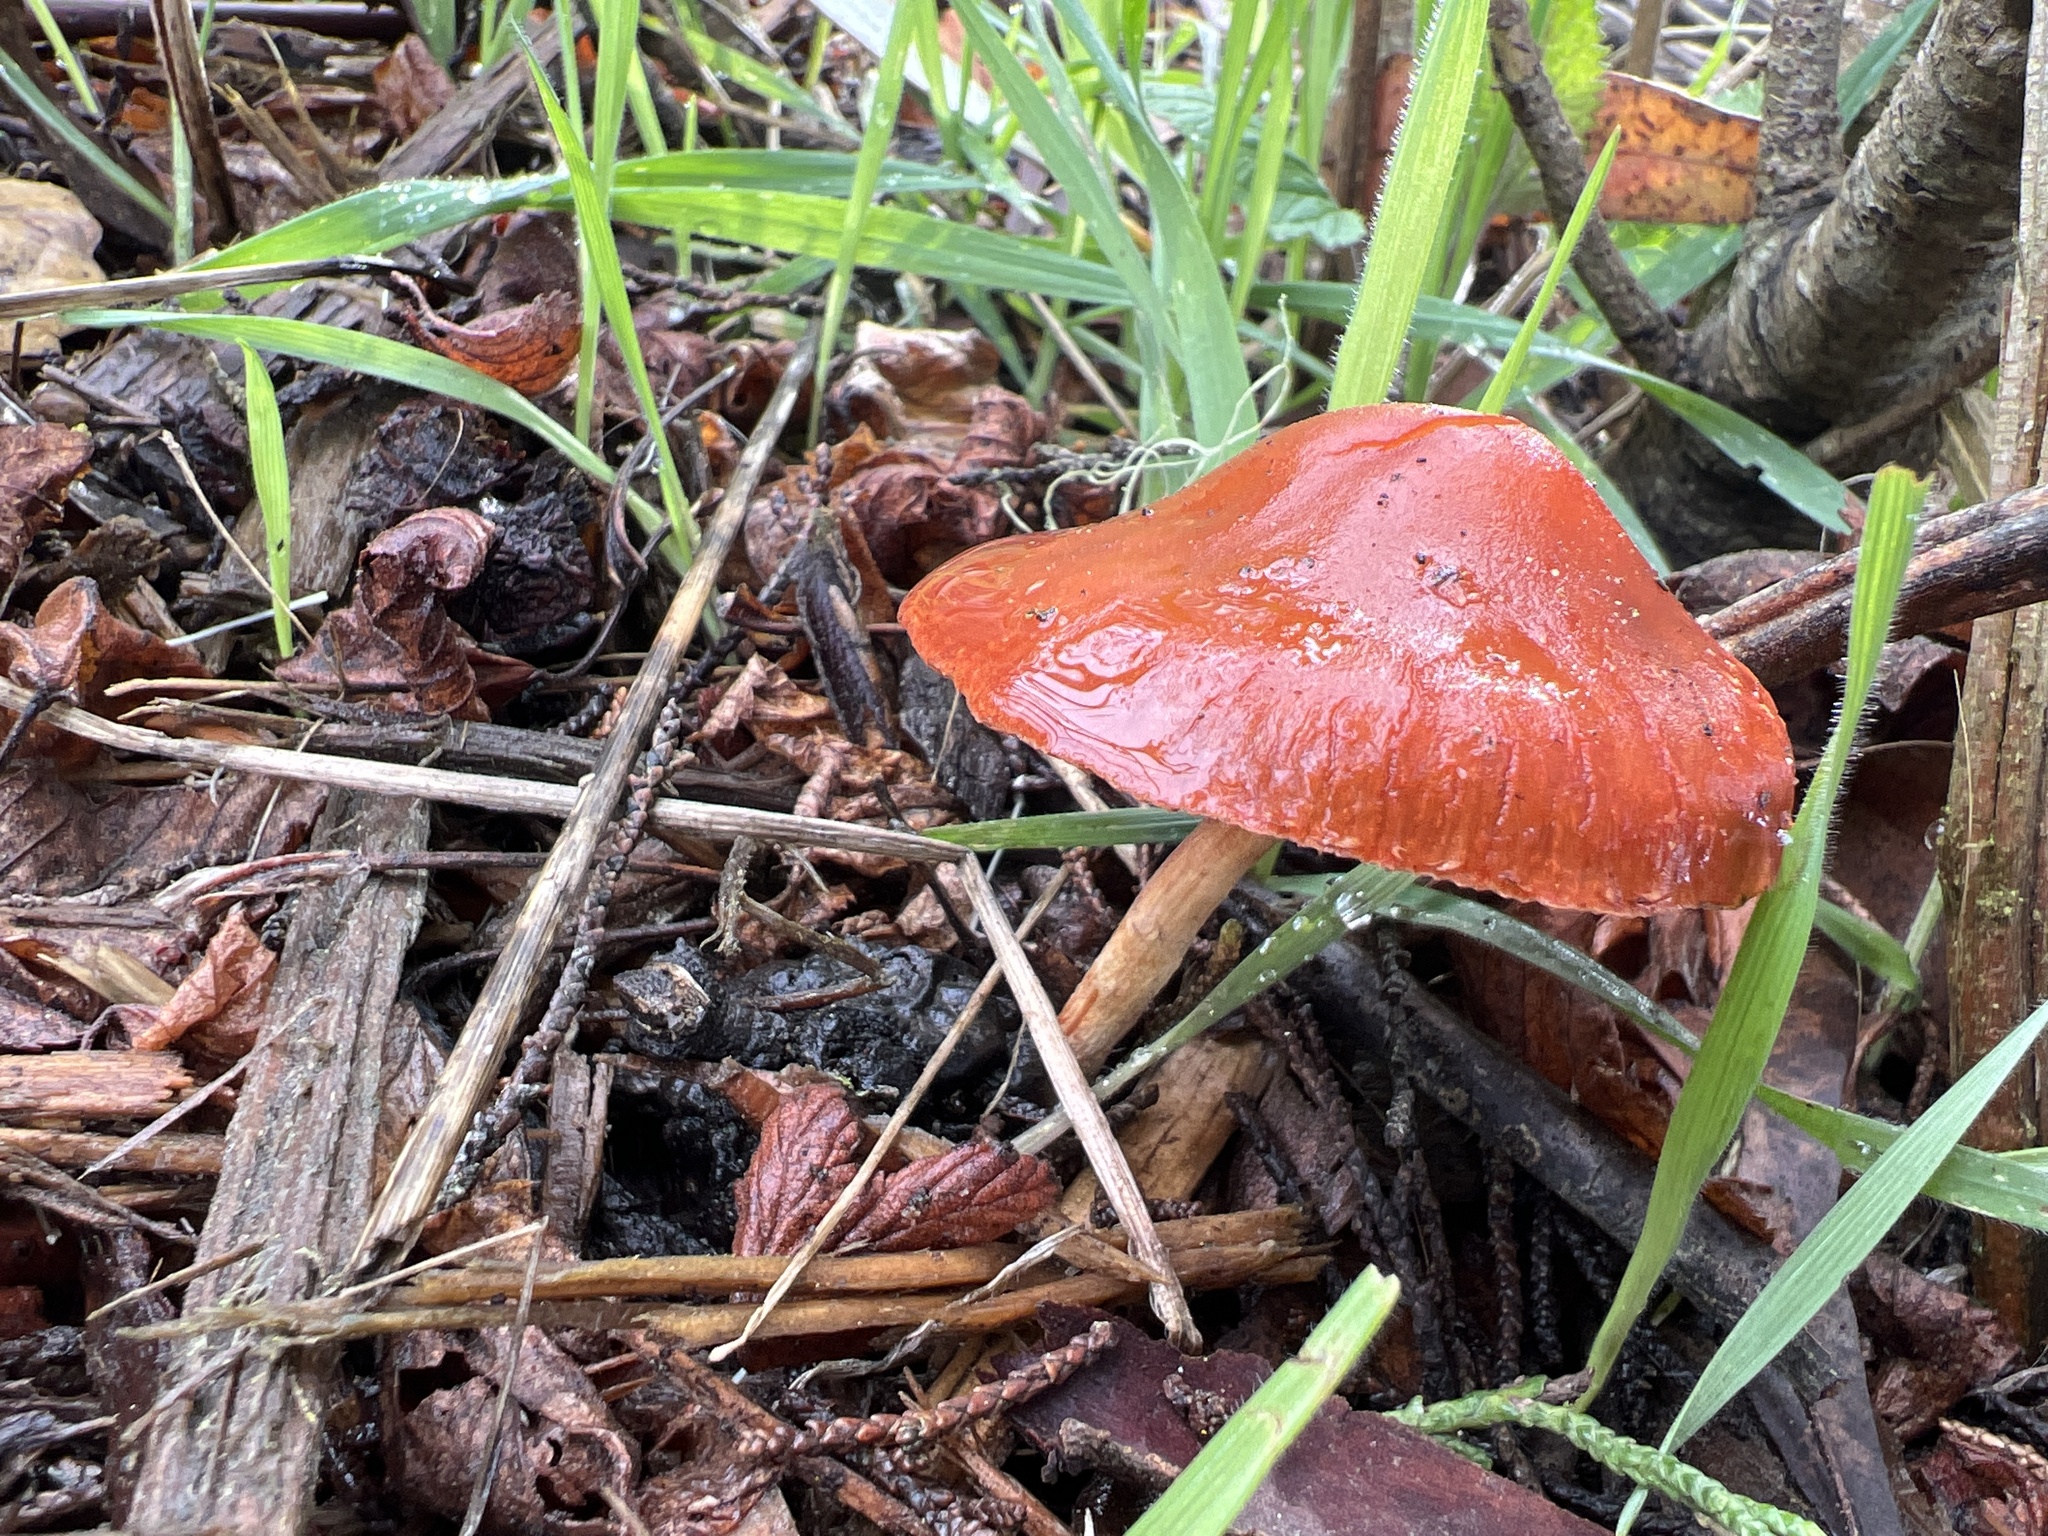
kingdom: Fungi
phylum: Basidiomycota
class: Agaricomycetes
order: Agaricales
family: Strophariaceae
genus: Leratiomyces
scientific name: Leratiomyces ceres
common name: Redlead roundhead
